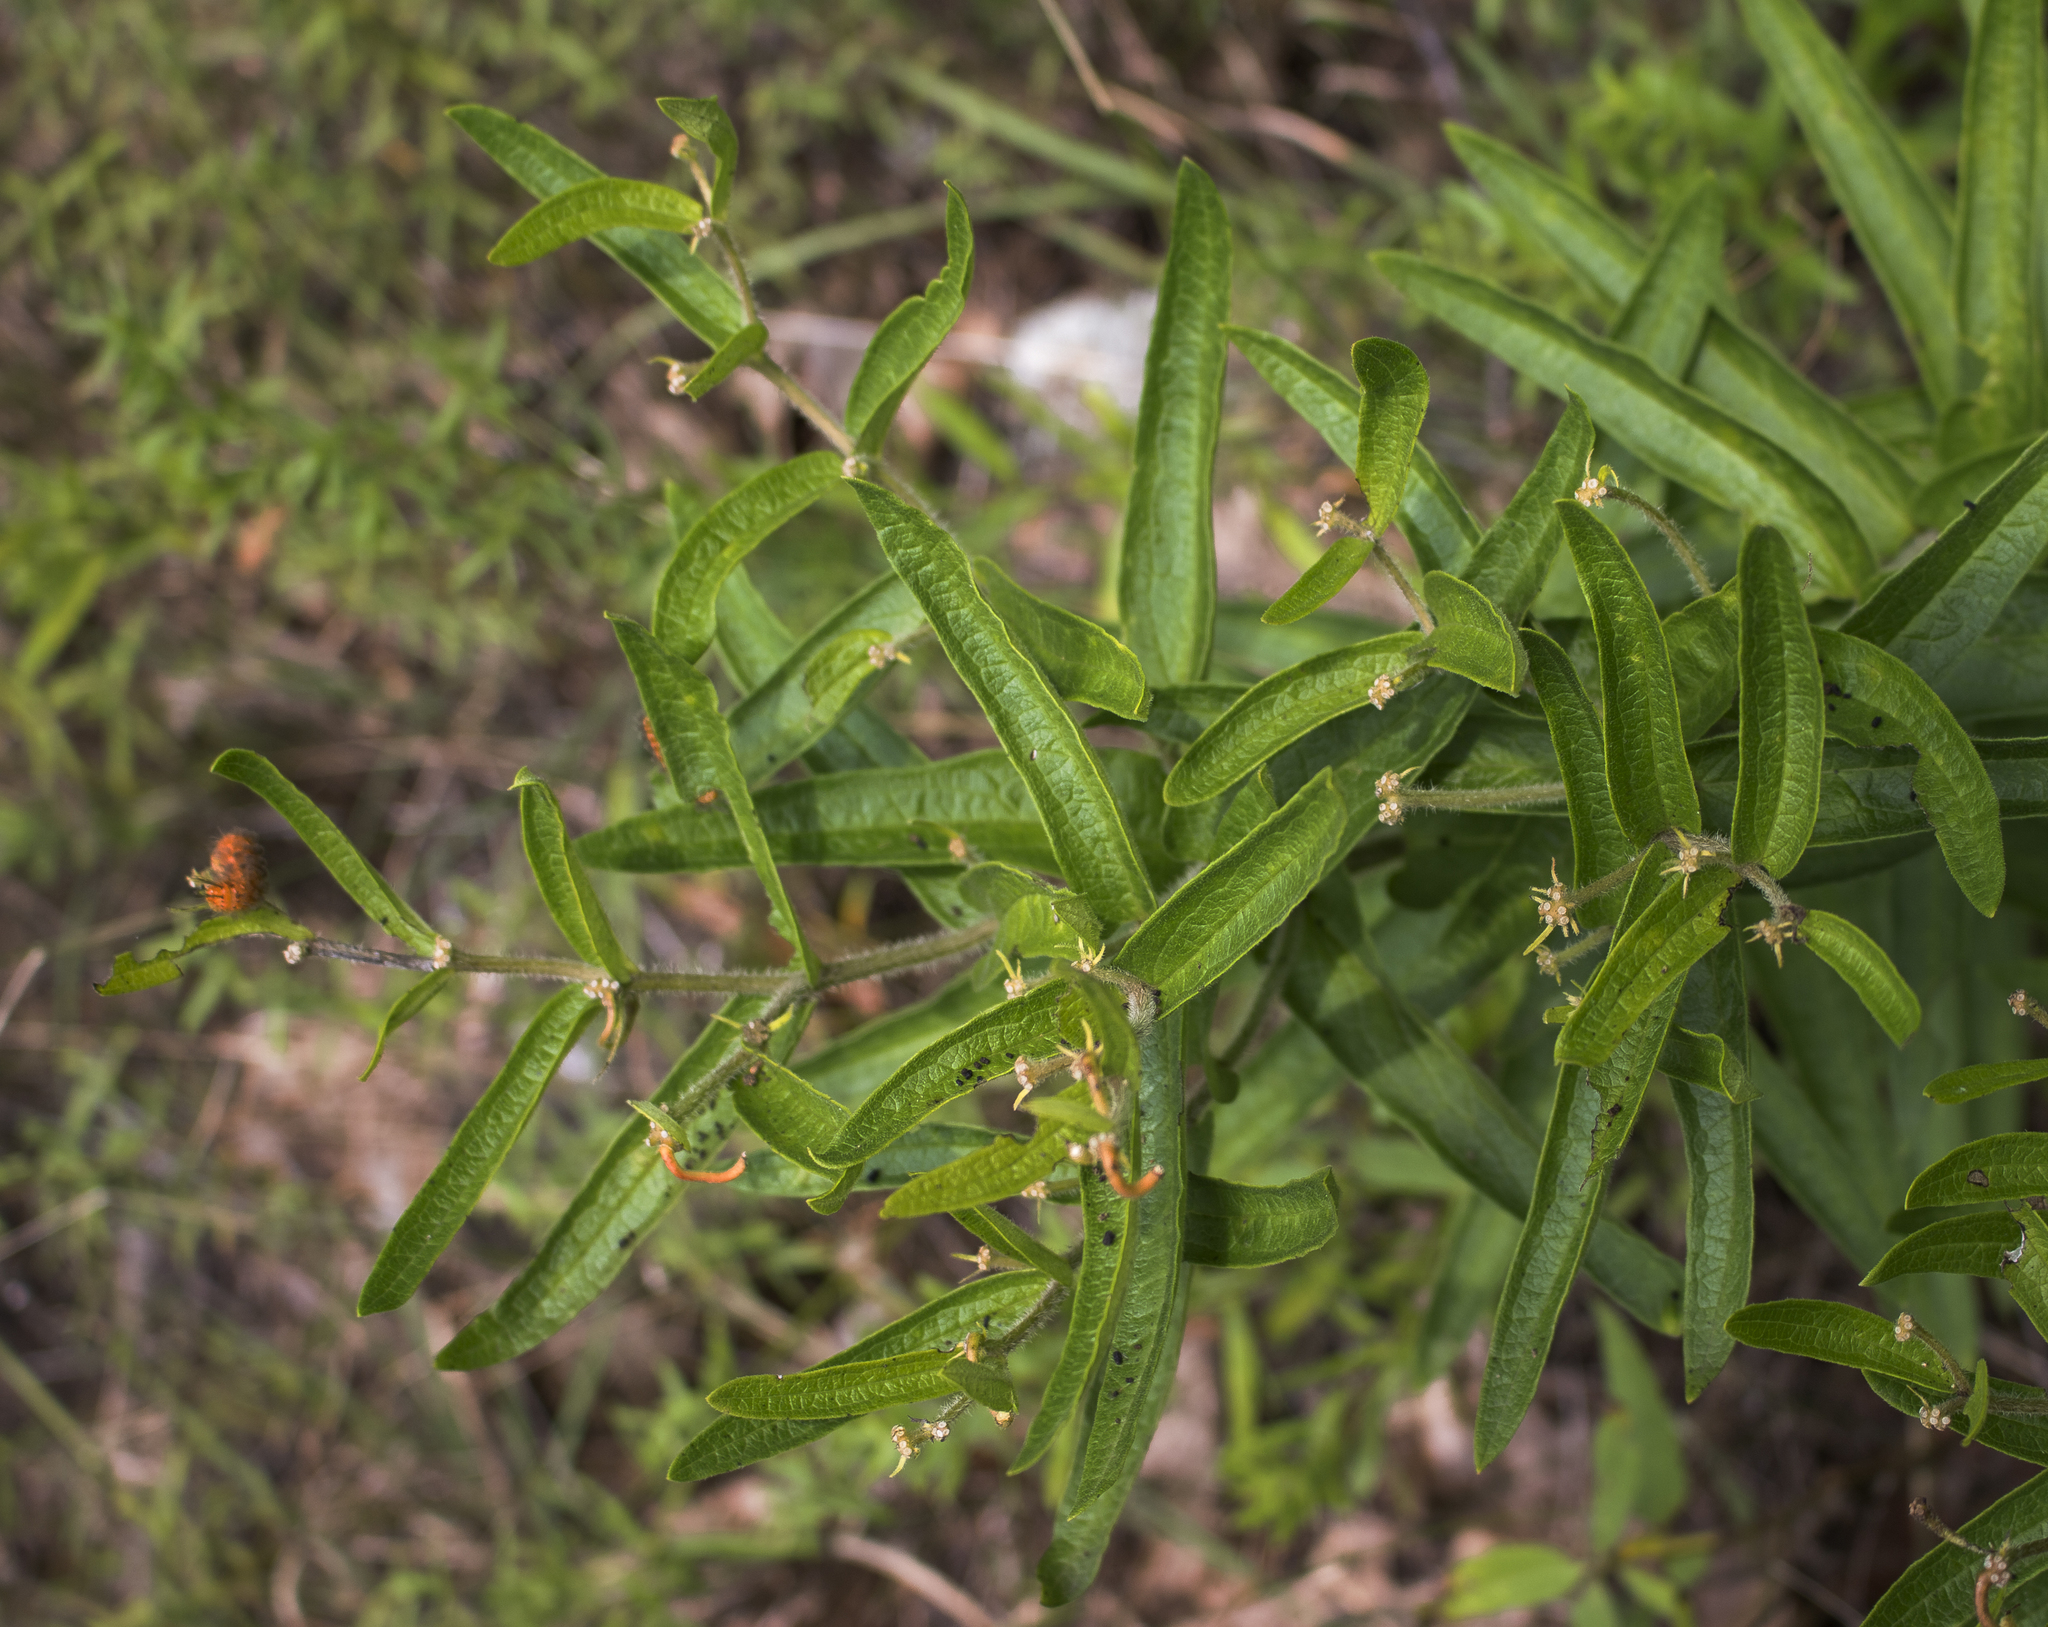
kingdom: Plantae
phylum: Tracheophyta
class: Magnoliopsida
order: Gentianales
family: Apocynaceae
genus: Asclepias
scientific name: Asclepias tuberosa
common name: Butterfly milkweed
